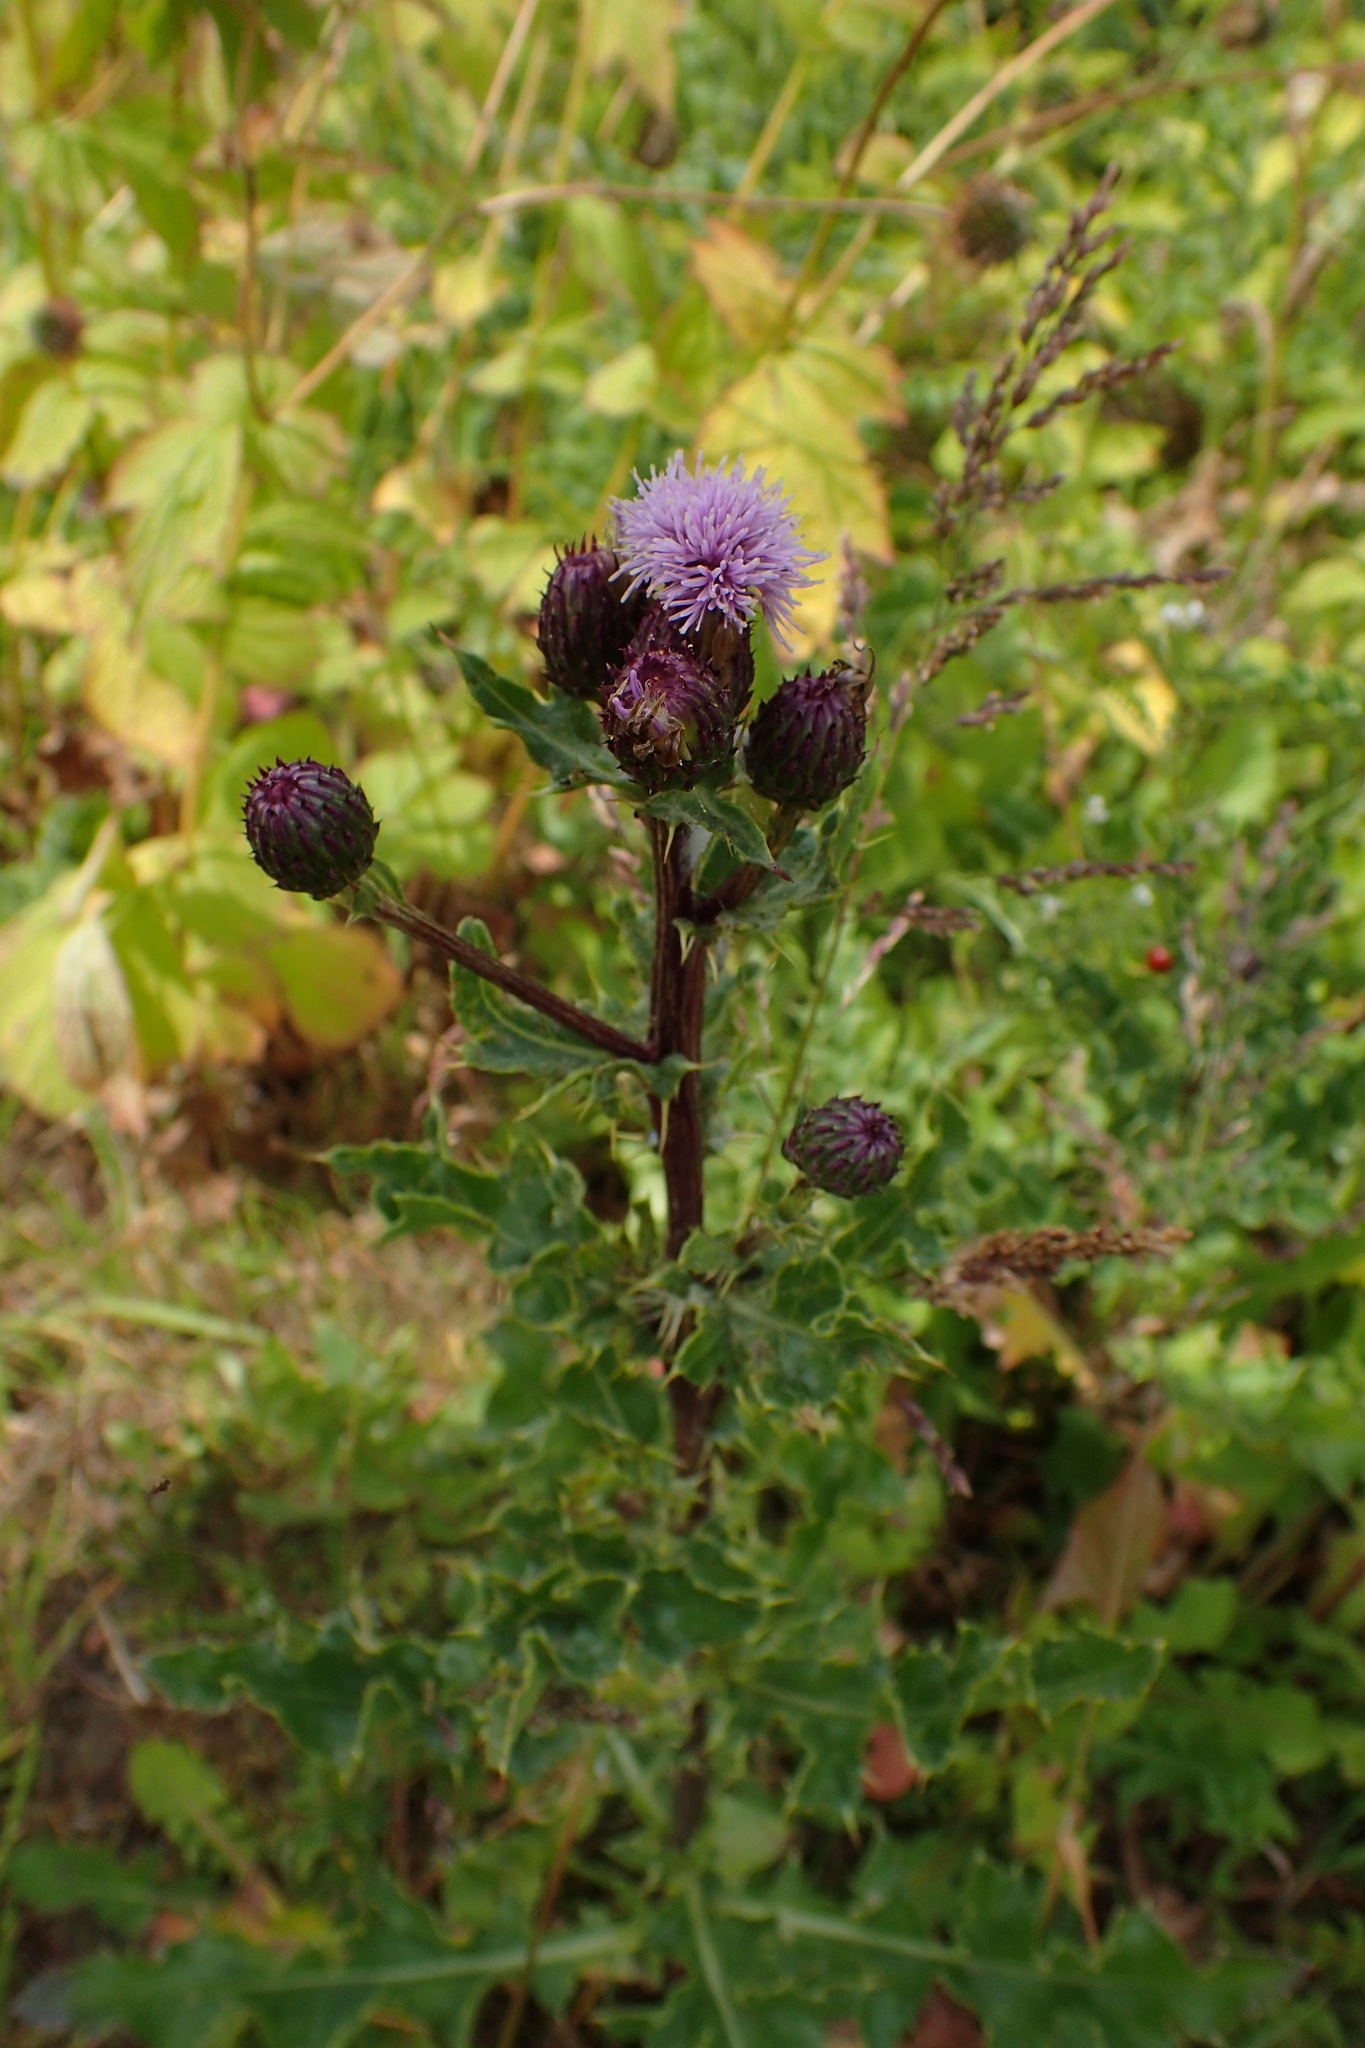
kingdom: Plantae
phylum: Tracheophyta
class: Magnoliopsida
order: Asterales
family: Asteraceae
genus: Cirsium
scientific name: Cirsium arvense
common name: Creeping thistle
